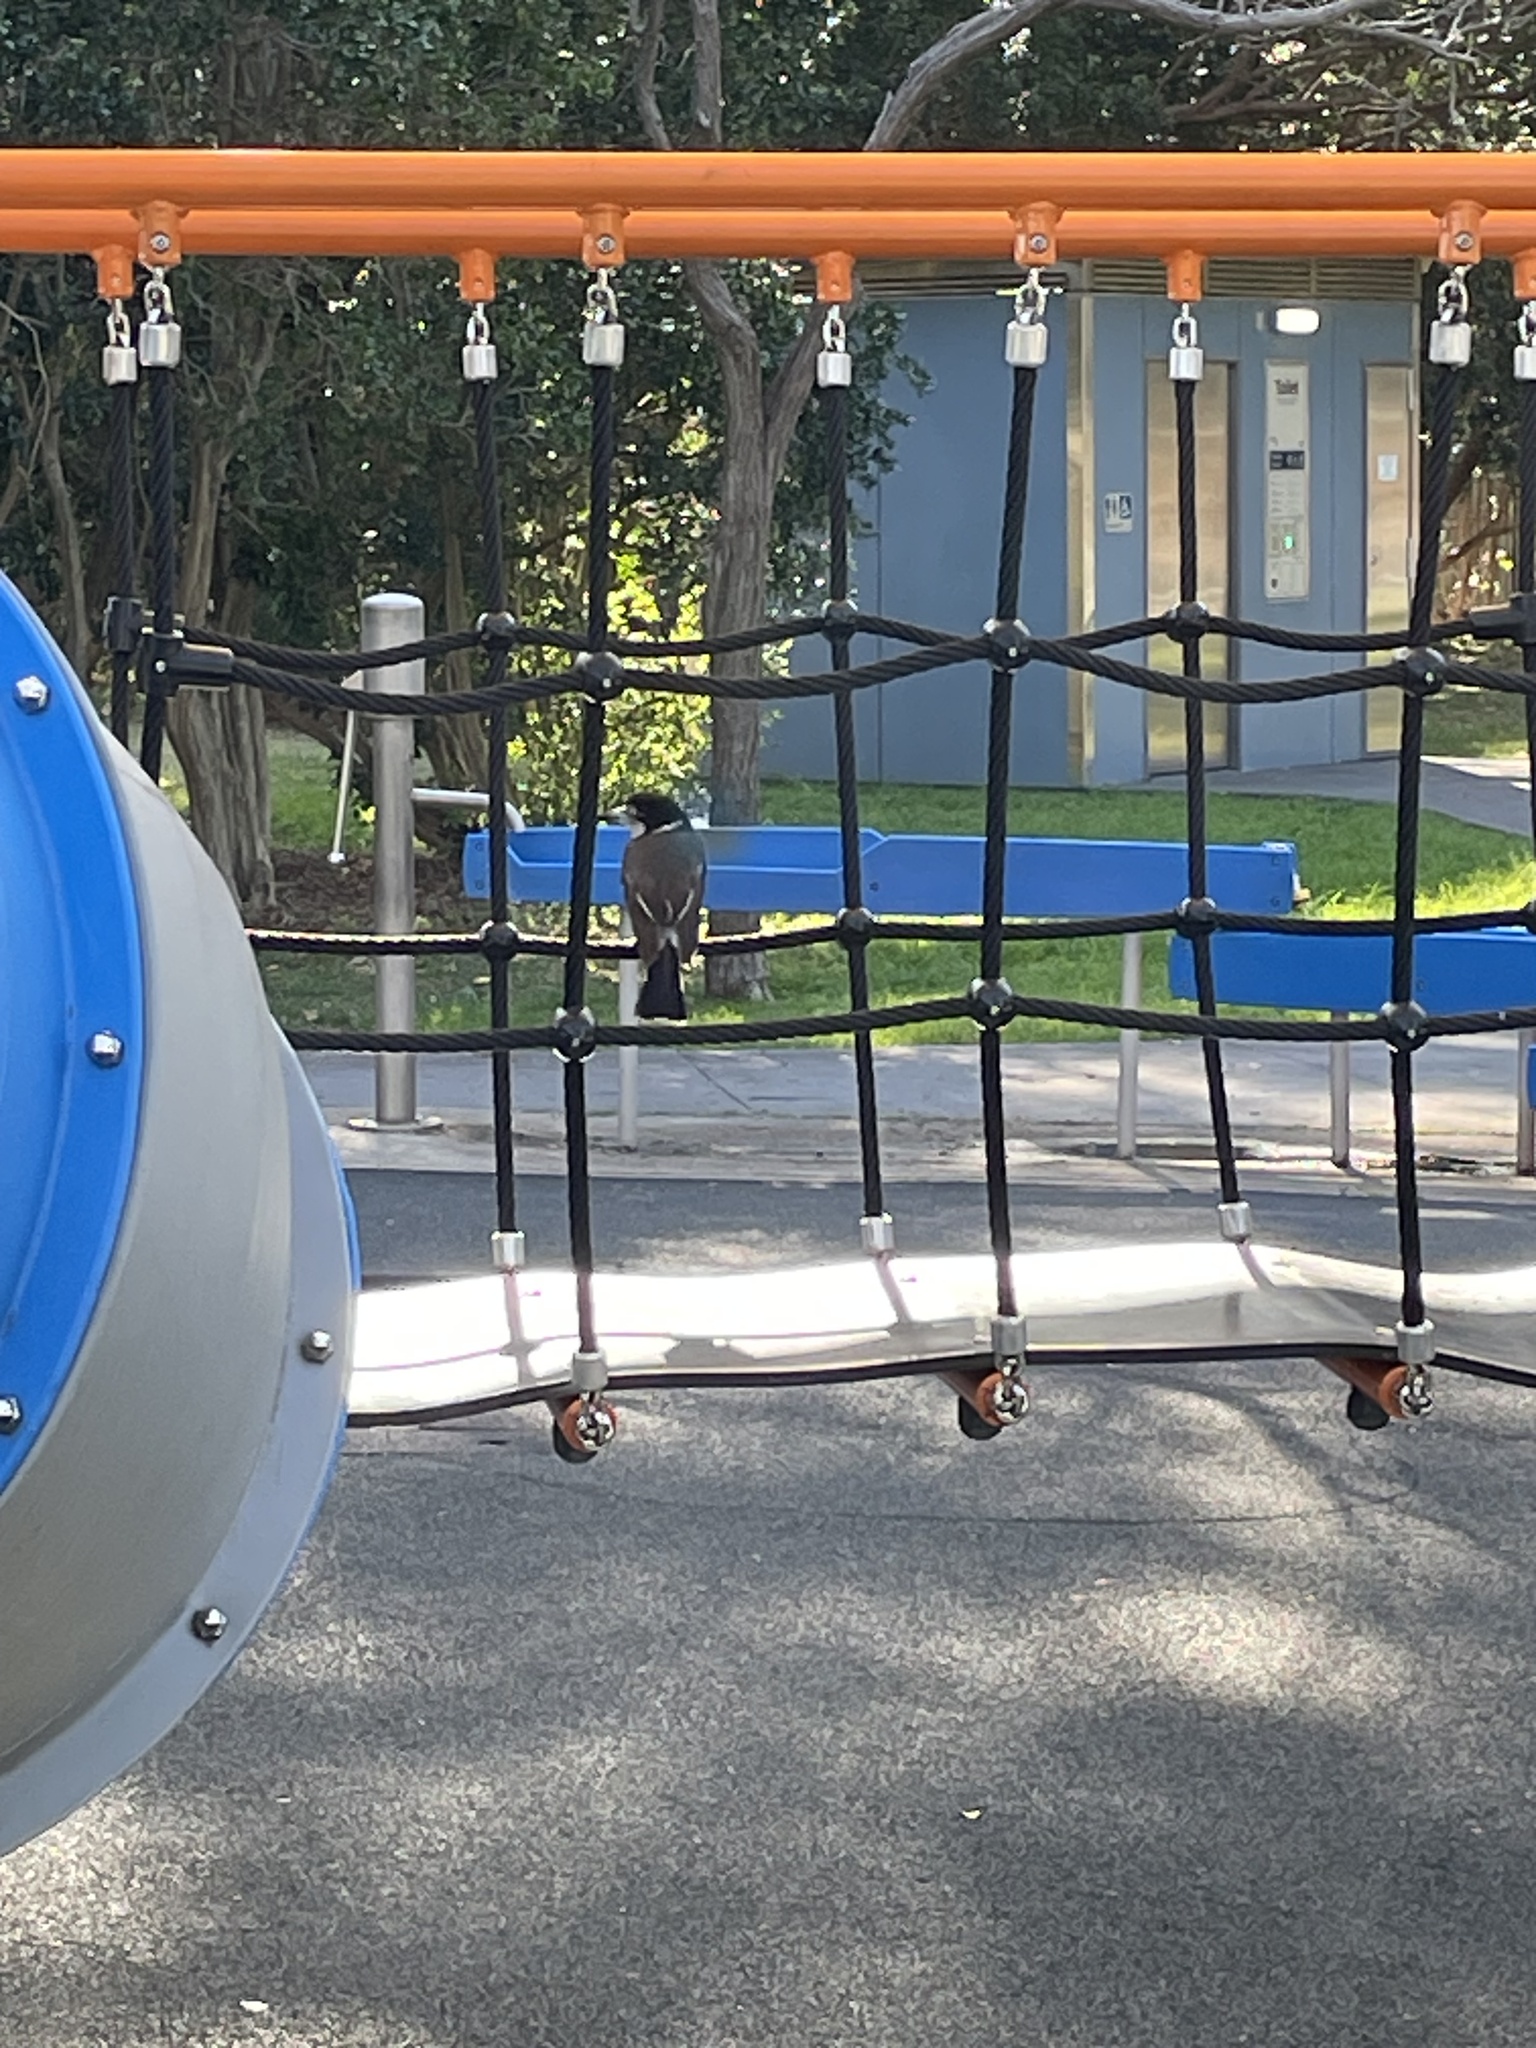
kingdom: Animalia
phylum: Chordata
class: Aves
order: Passeriformes
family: Cracticidae
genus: Cracticus
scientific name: Cracticus torquatus
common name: Grey butcherbird
